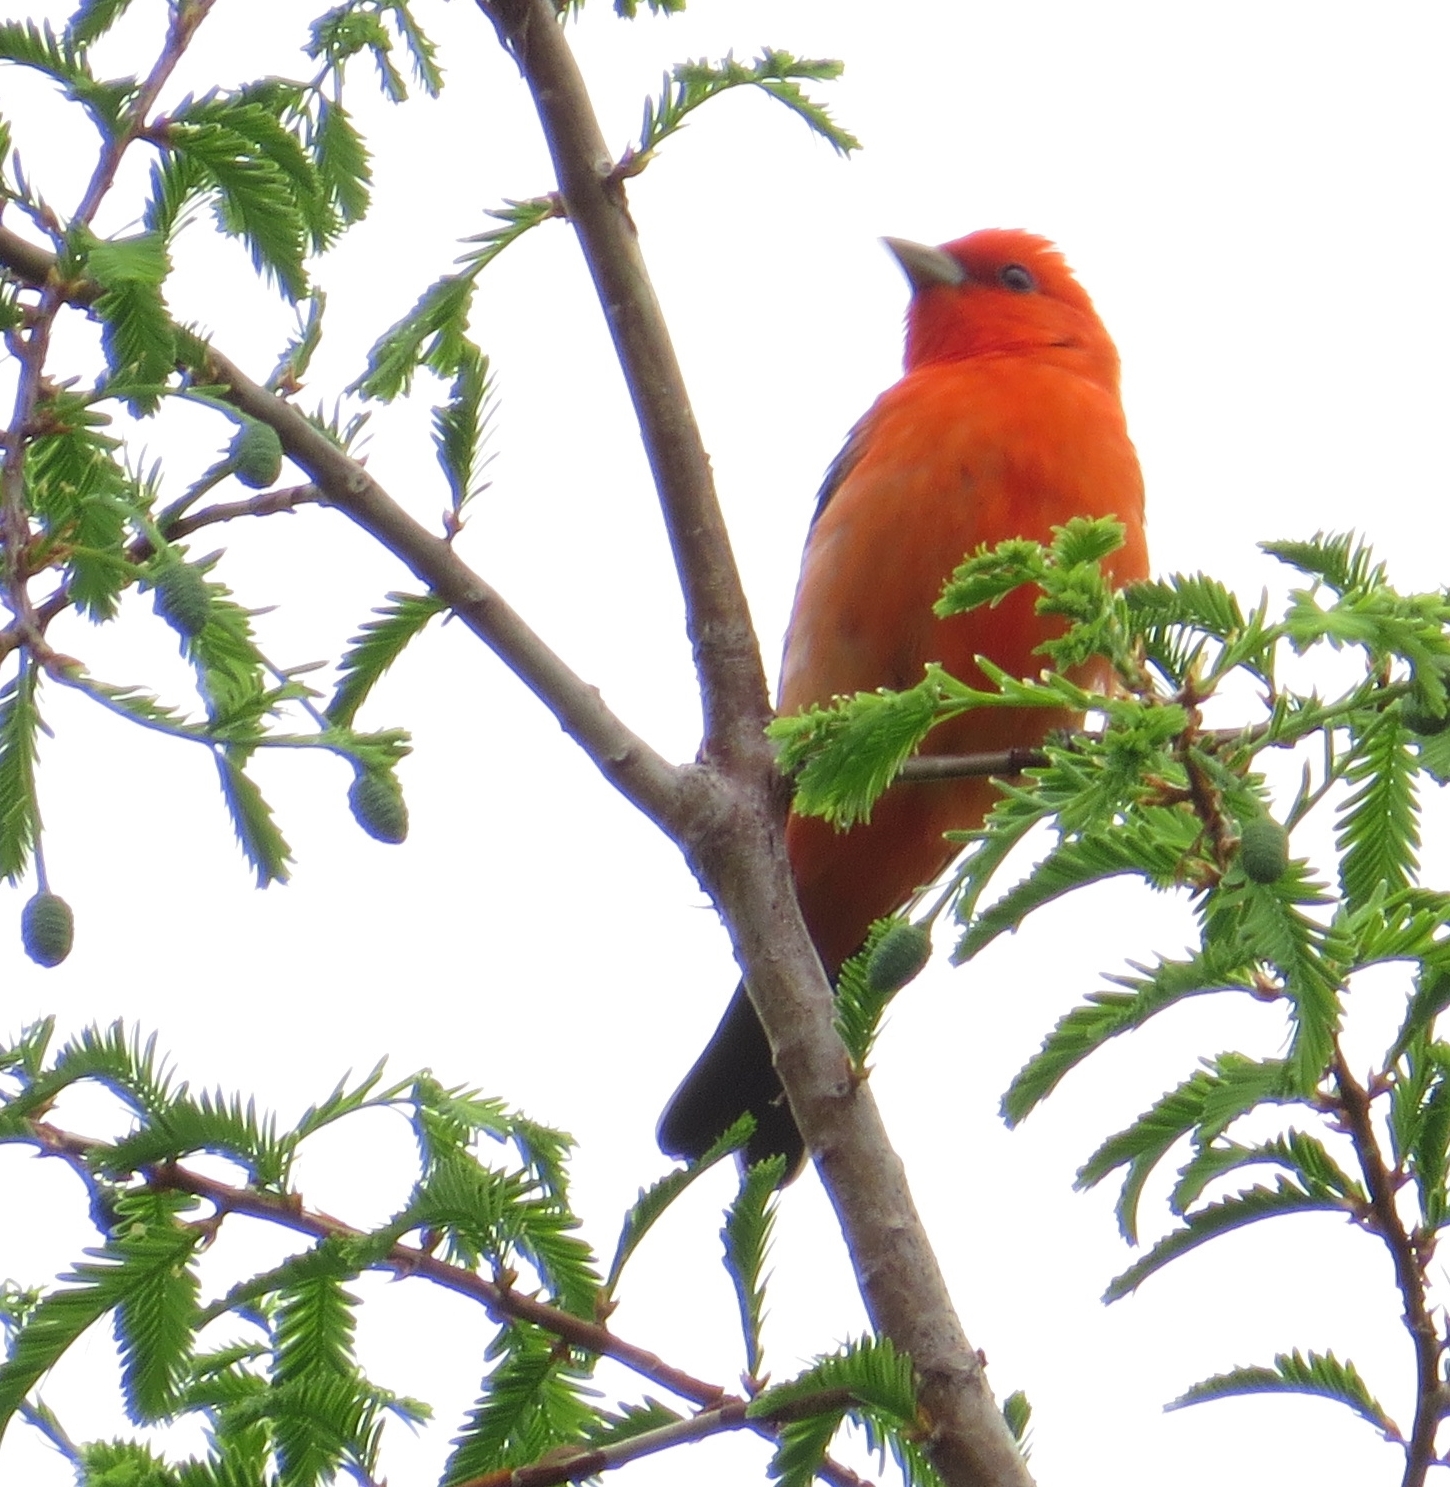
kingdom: Animalia
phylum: Chordata
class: Aves
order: Passeriformes
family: Cardinalidae
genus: Piranga
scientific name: Piranga olivacea
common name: Scarlet tanager
